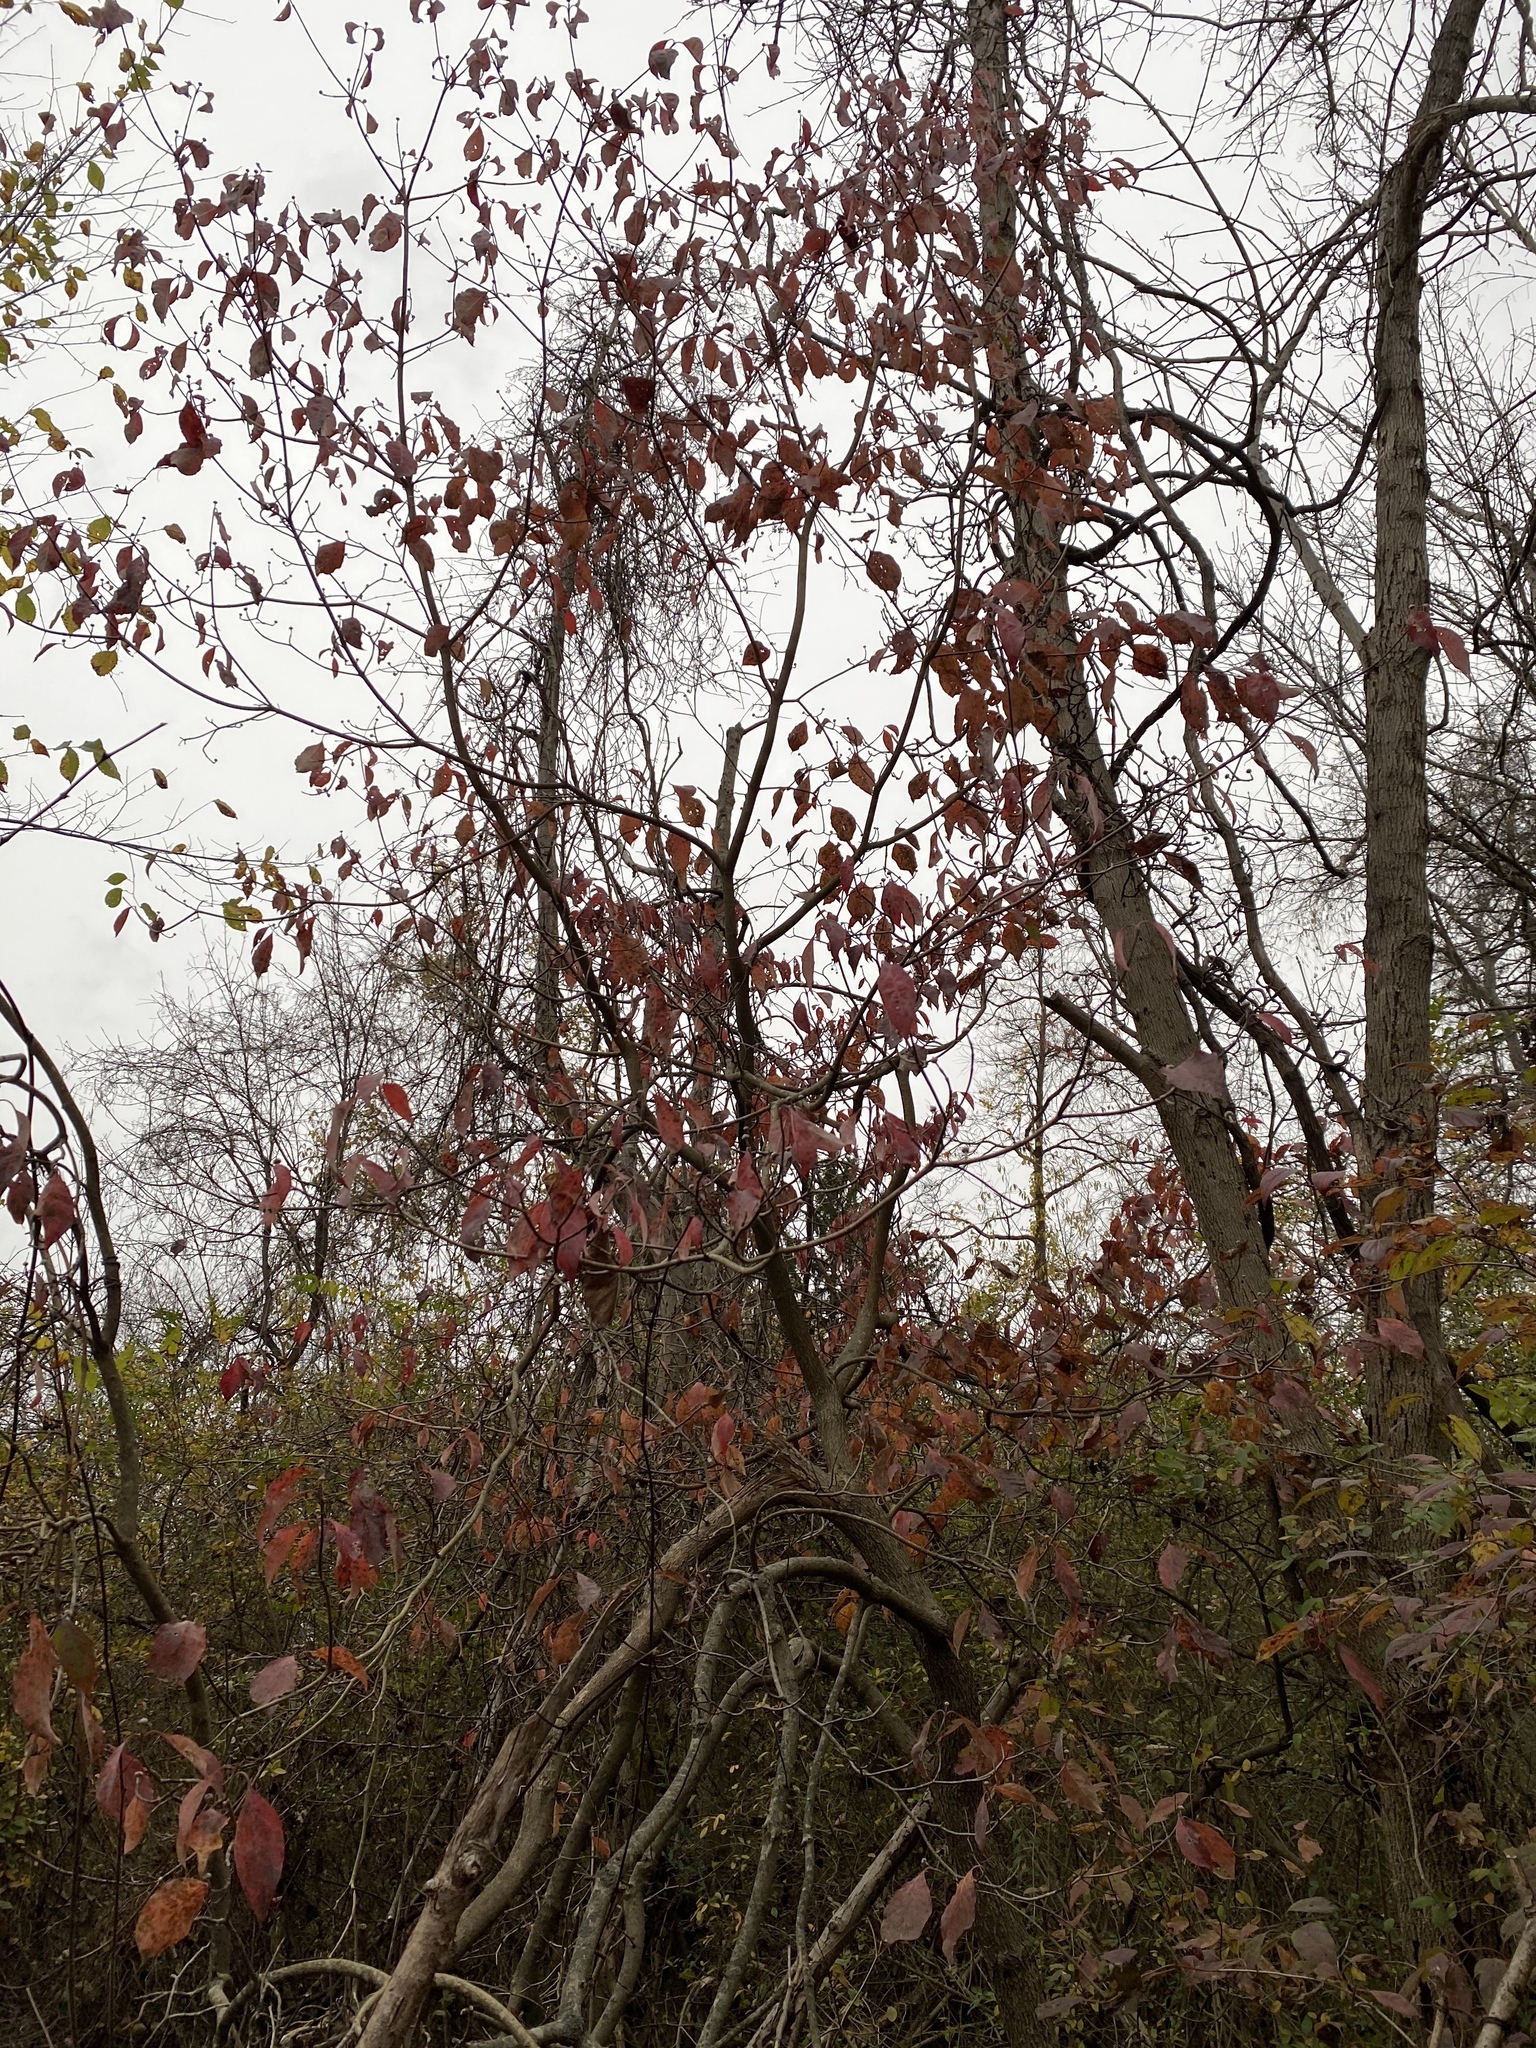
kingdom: Plantae
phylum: Tracheophyta
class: Magnoliopsida
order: Cornales
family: Cornaceae
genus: Cornus
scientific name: Cornus florida
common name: Flowering dogwood
